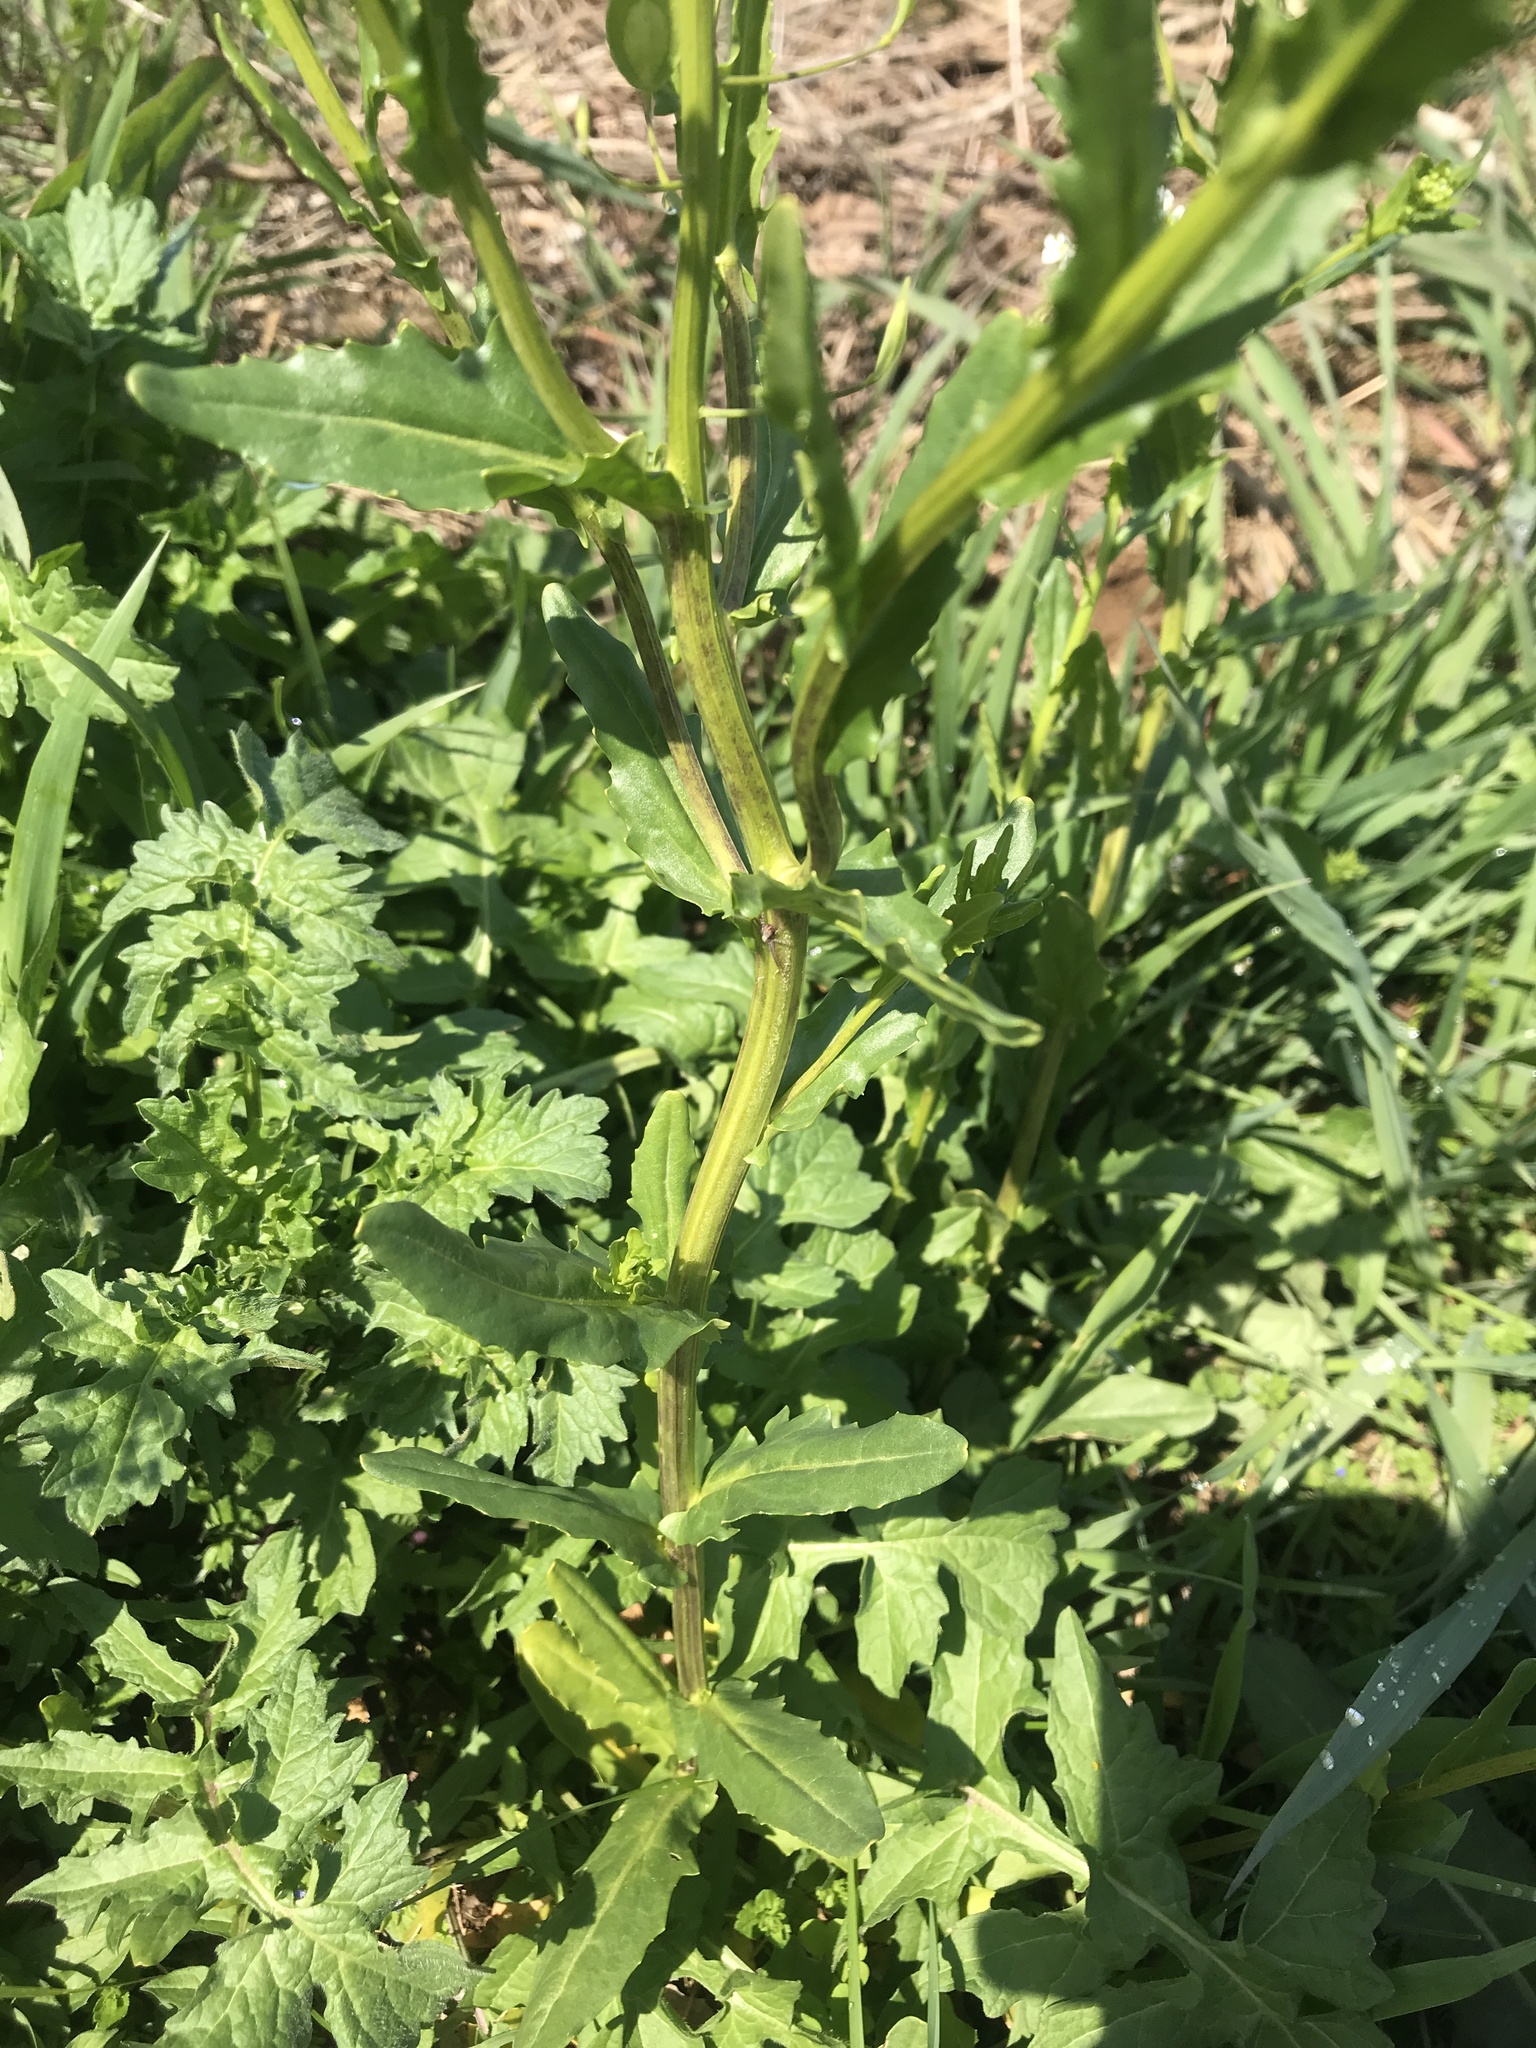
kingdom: Plantae
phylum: Tracheophyta
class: Magnoliopsida
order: Brassicales
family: Brassicaceae
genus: Thlaspi
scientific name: Thlaspi arvense
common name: Field pennycress
